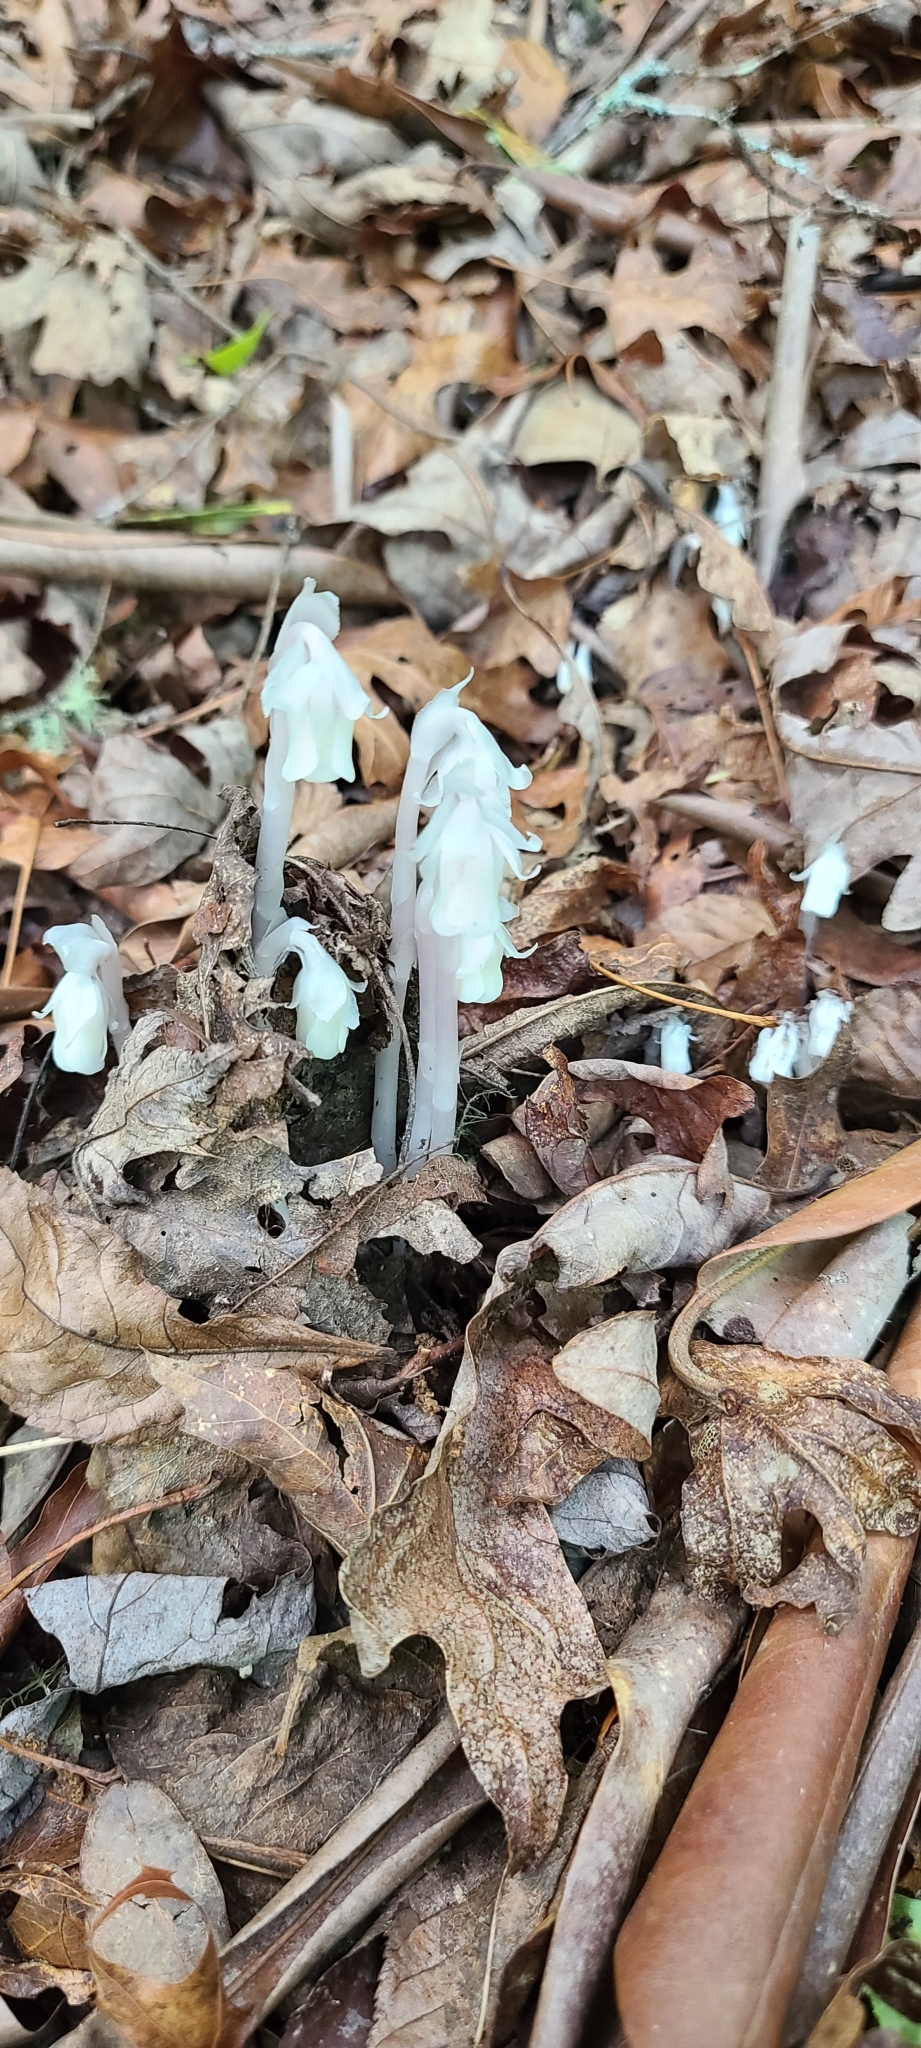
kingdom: Plantae
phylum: Tracheophyta
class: Magnoliopsida
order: Ericales
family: Ericaceae
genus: Monotropa
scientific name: Monotropa uniflora
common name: Convulsion root
